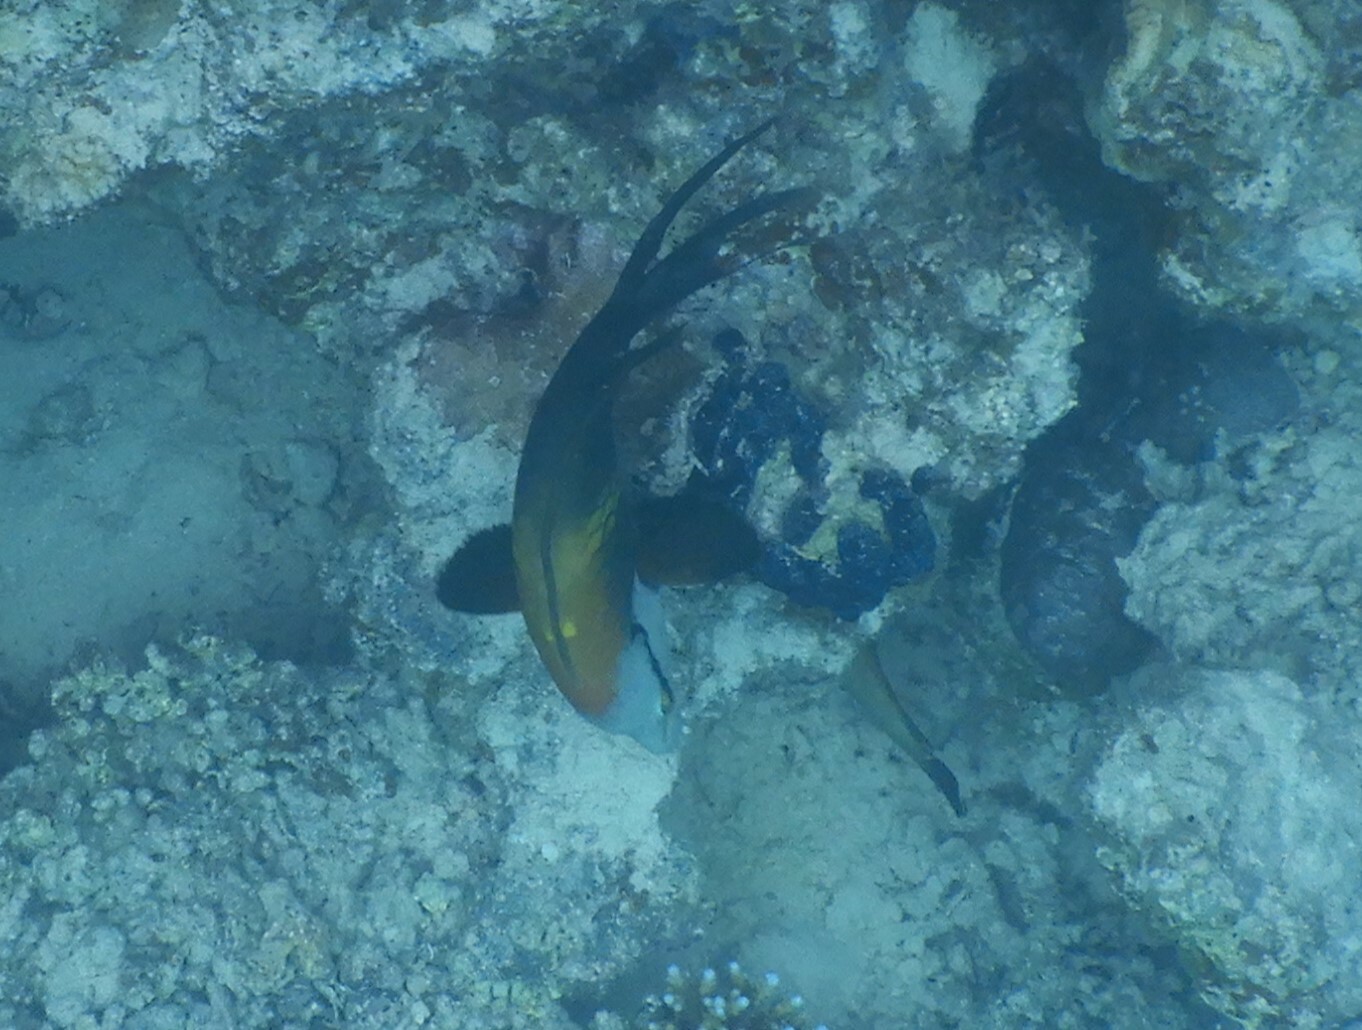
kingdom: Animalia
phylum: Chordata
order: Perciformes
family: Labridae
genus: Epibulus
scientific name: Epibulus insidiator
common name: Slingjaw wrasse
